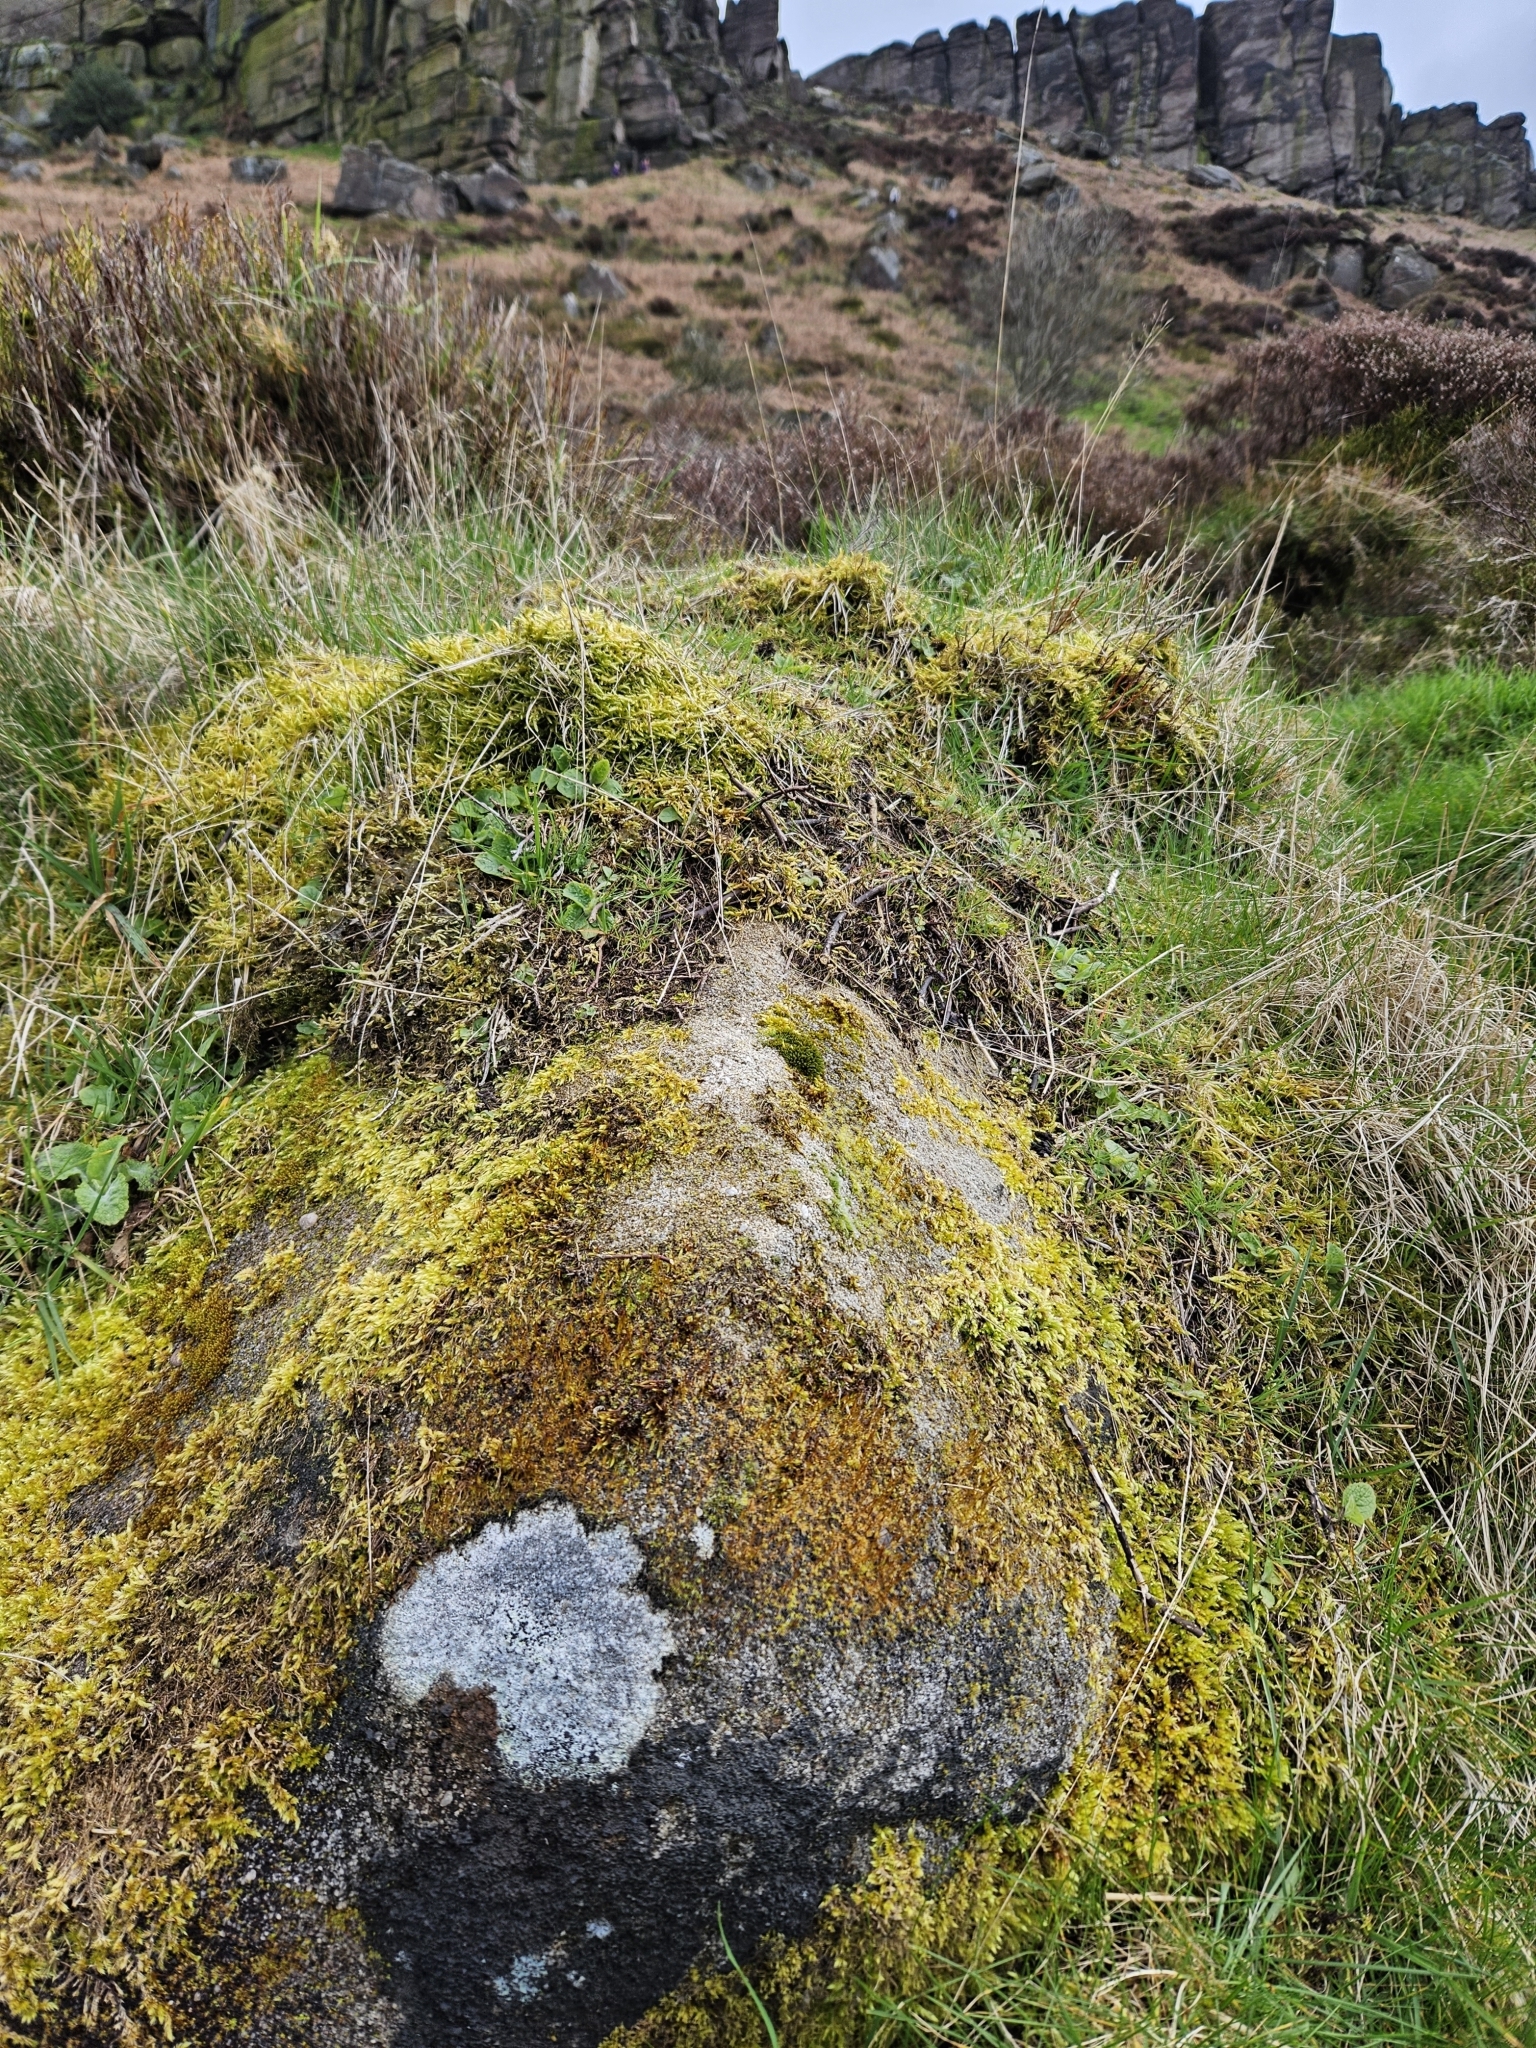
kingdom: Plantae
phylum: Bryophyta
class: Bryopsida
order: Pottiales
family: Pottiaceae
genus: Tortula
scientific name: Tortula muralis
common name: Wall screw-moss
